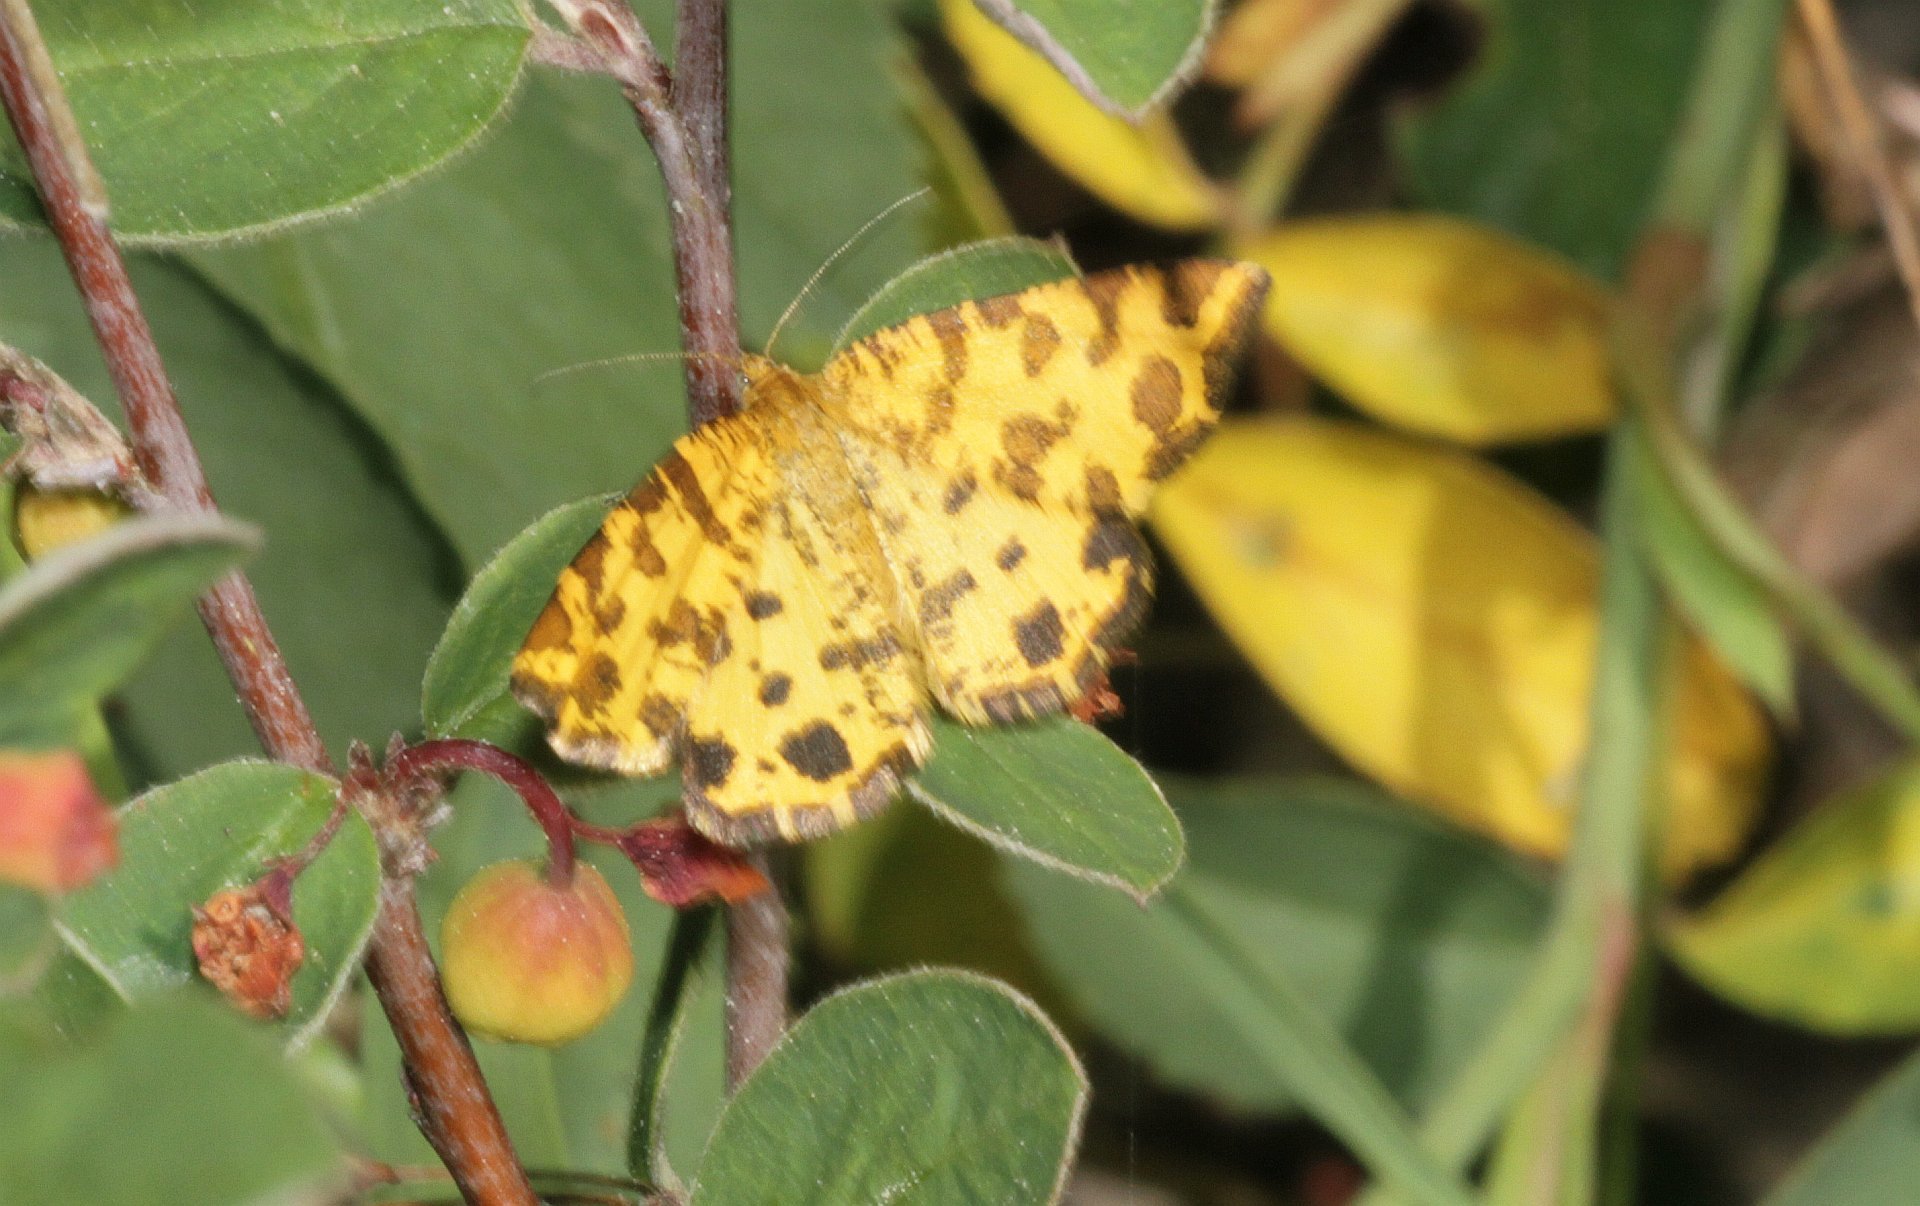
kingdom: Animalia
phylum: Arthropoda
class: Insecta
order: Lepidoptera
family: Geometridae
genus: Pseudopanthera
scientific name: Pseudopanthera macularia
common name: Speckled yellow
